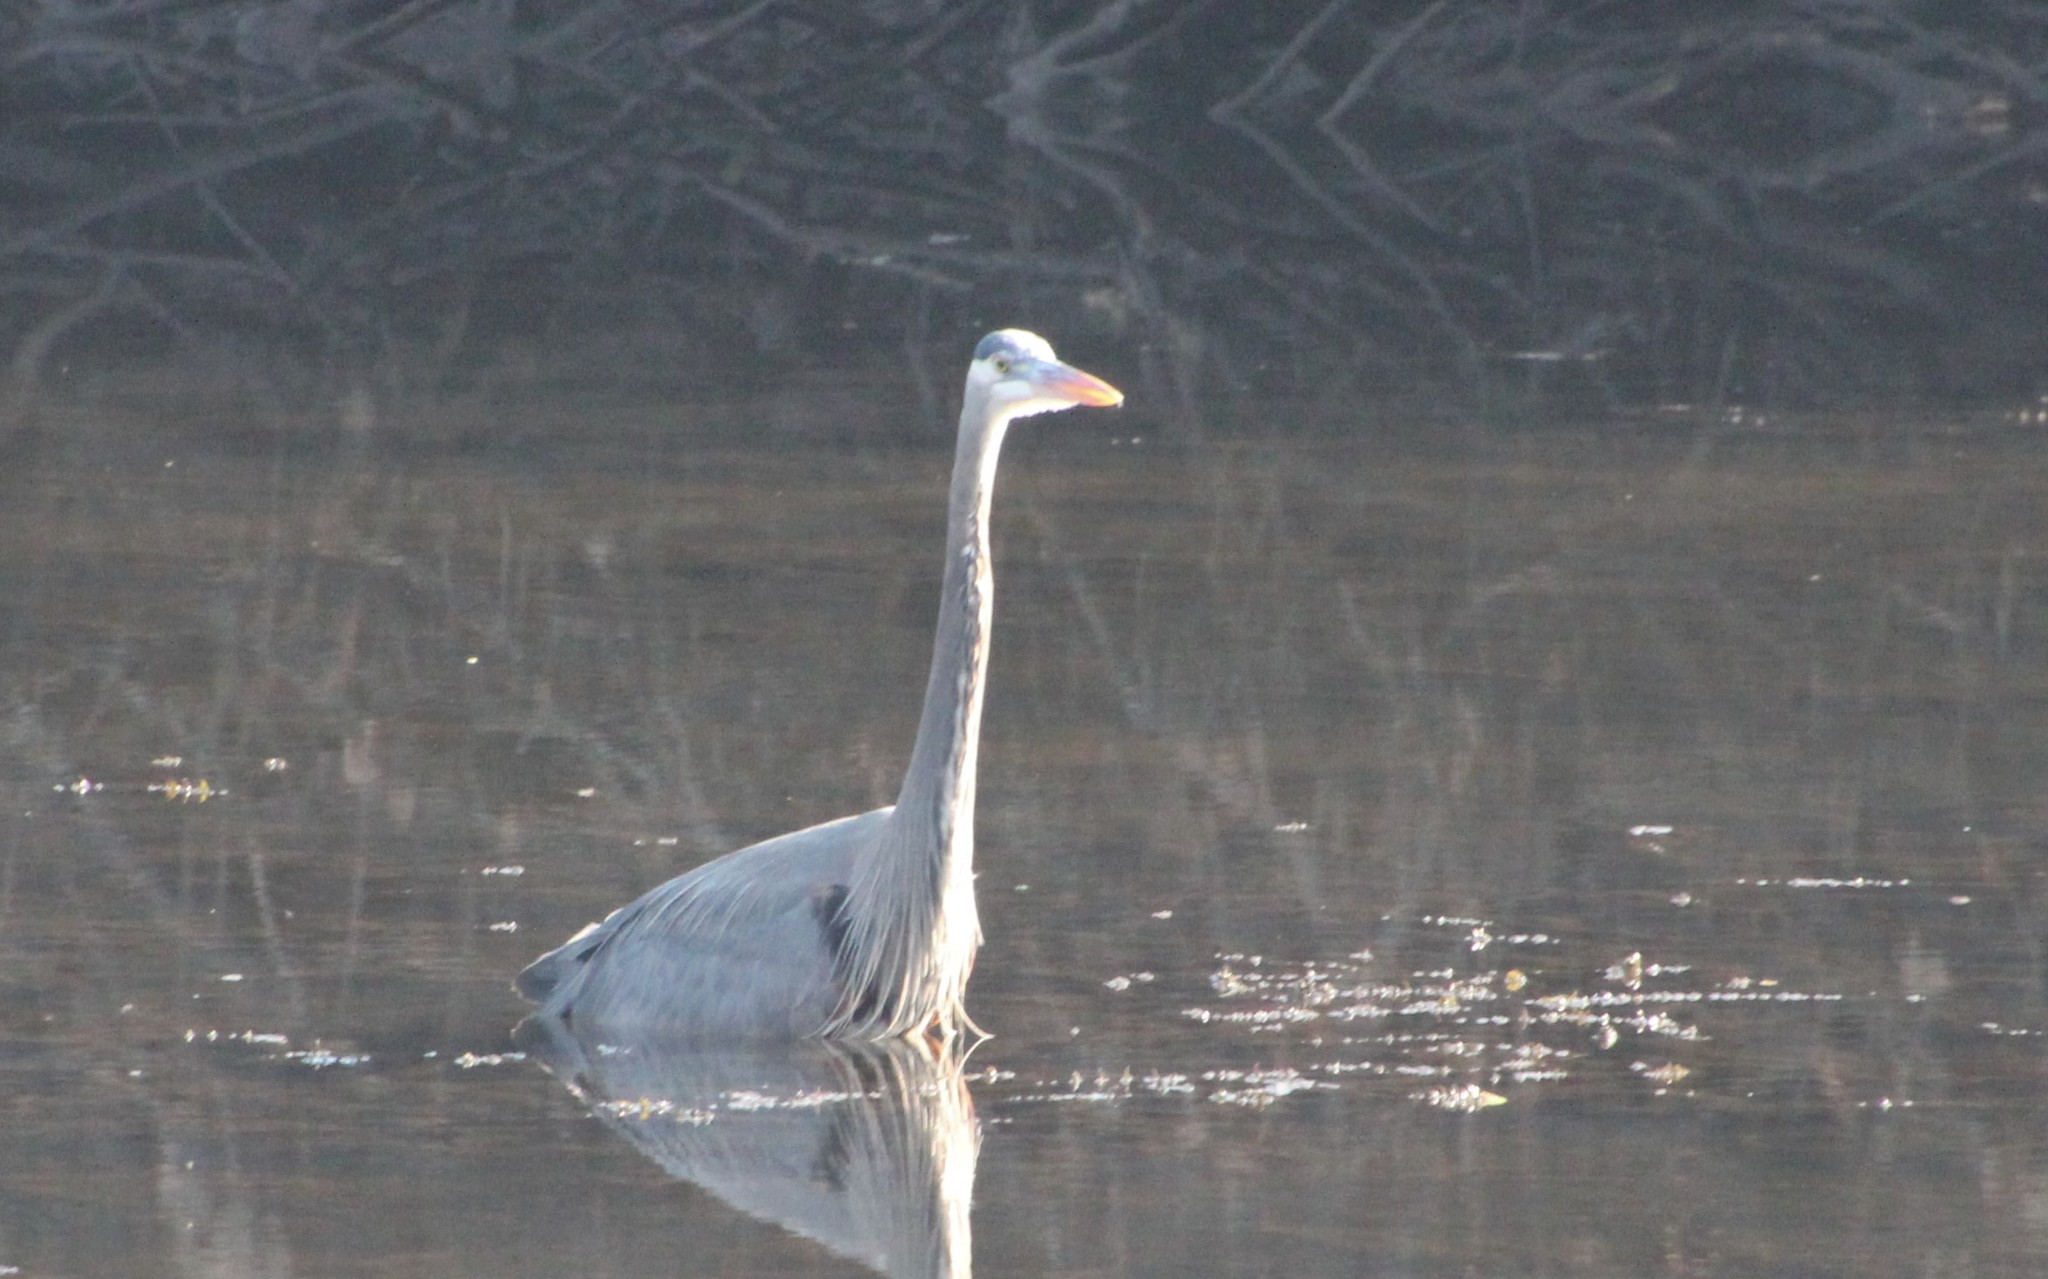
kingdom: Animalia
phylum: Chordata
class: Aves
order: Pelecaniformes
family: Ardeidae
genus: Ardea
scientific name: Ardea herodias
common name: Great blue heron
